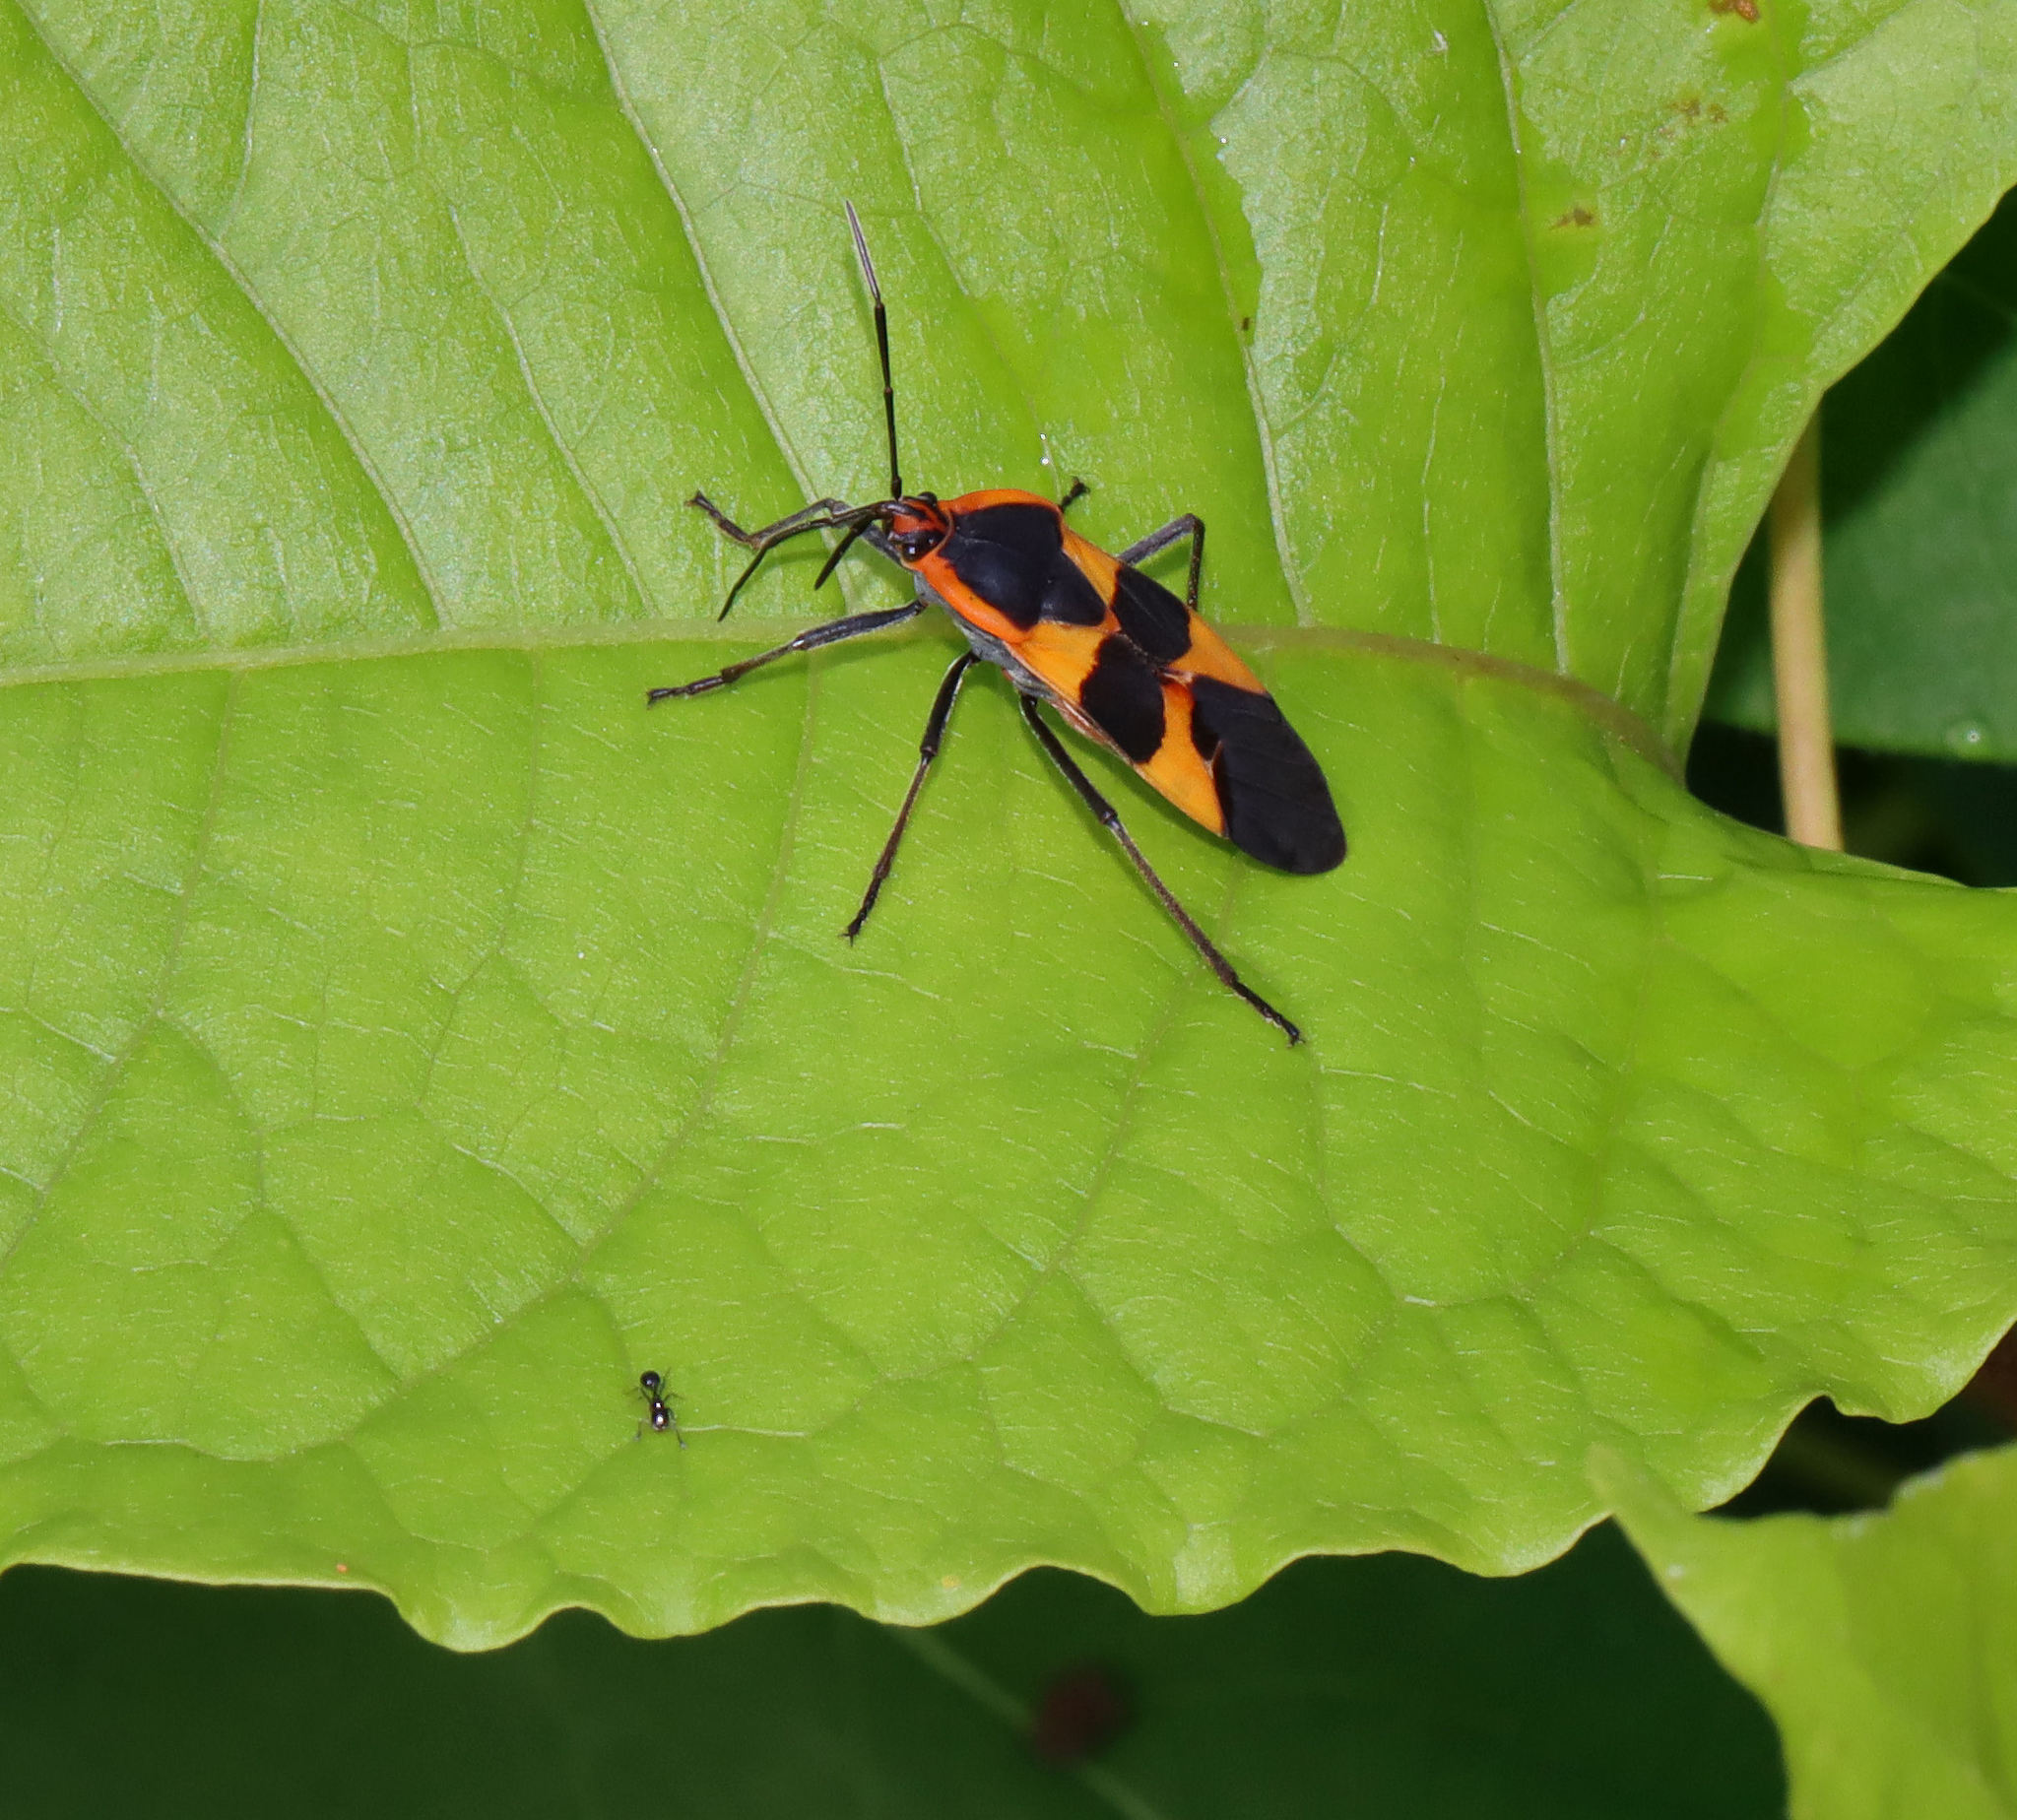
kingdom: Animalia
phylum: Arthropoda
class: Insecta
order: Hemiptera
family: Lygaeidae
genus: Oncopeltus
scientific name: Oncopeltus fasciatus
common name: Large milkweed bug
